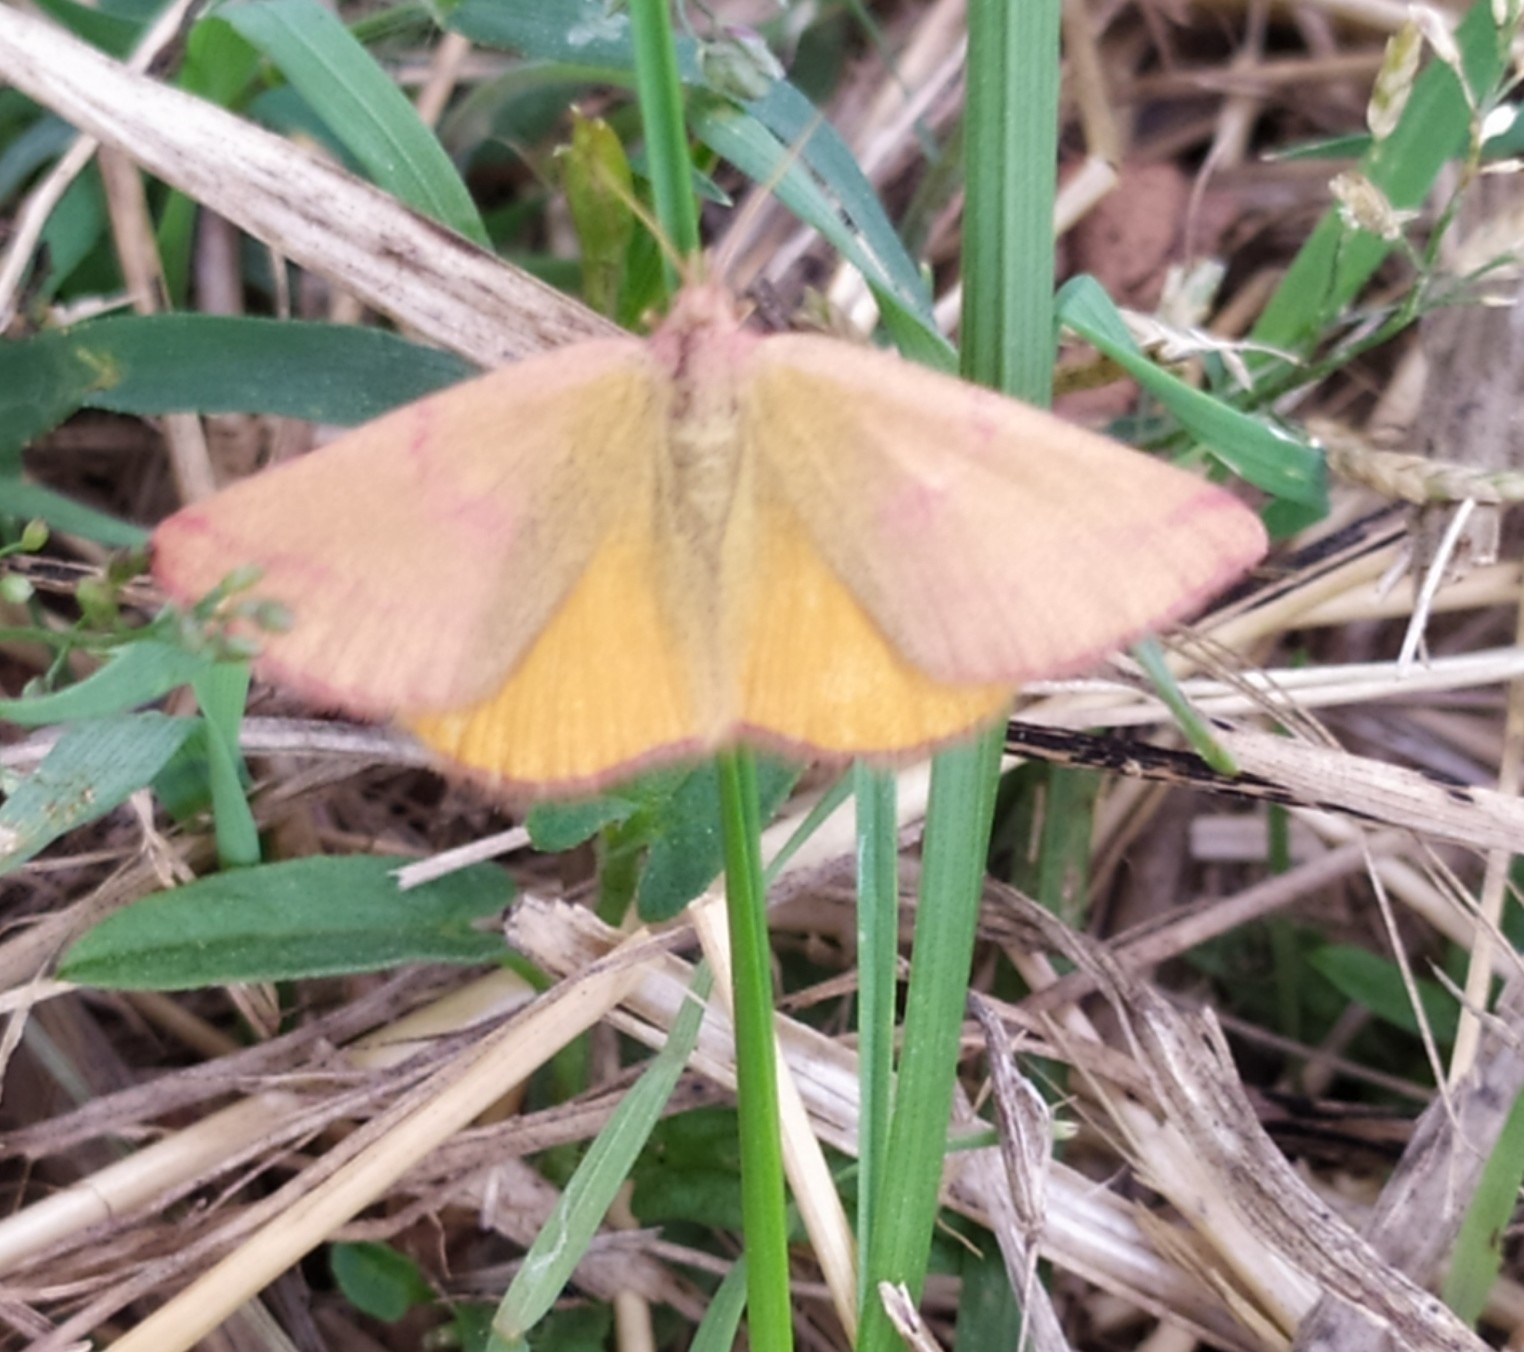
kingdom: Animalia
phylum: Arthropoda
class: Insecta
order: Lepidoptera
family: Geometridae
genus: Lythria
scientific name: Lythria purpuraria
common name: Purple-barred yellow
